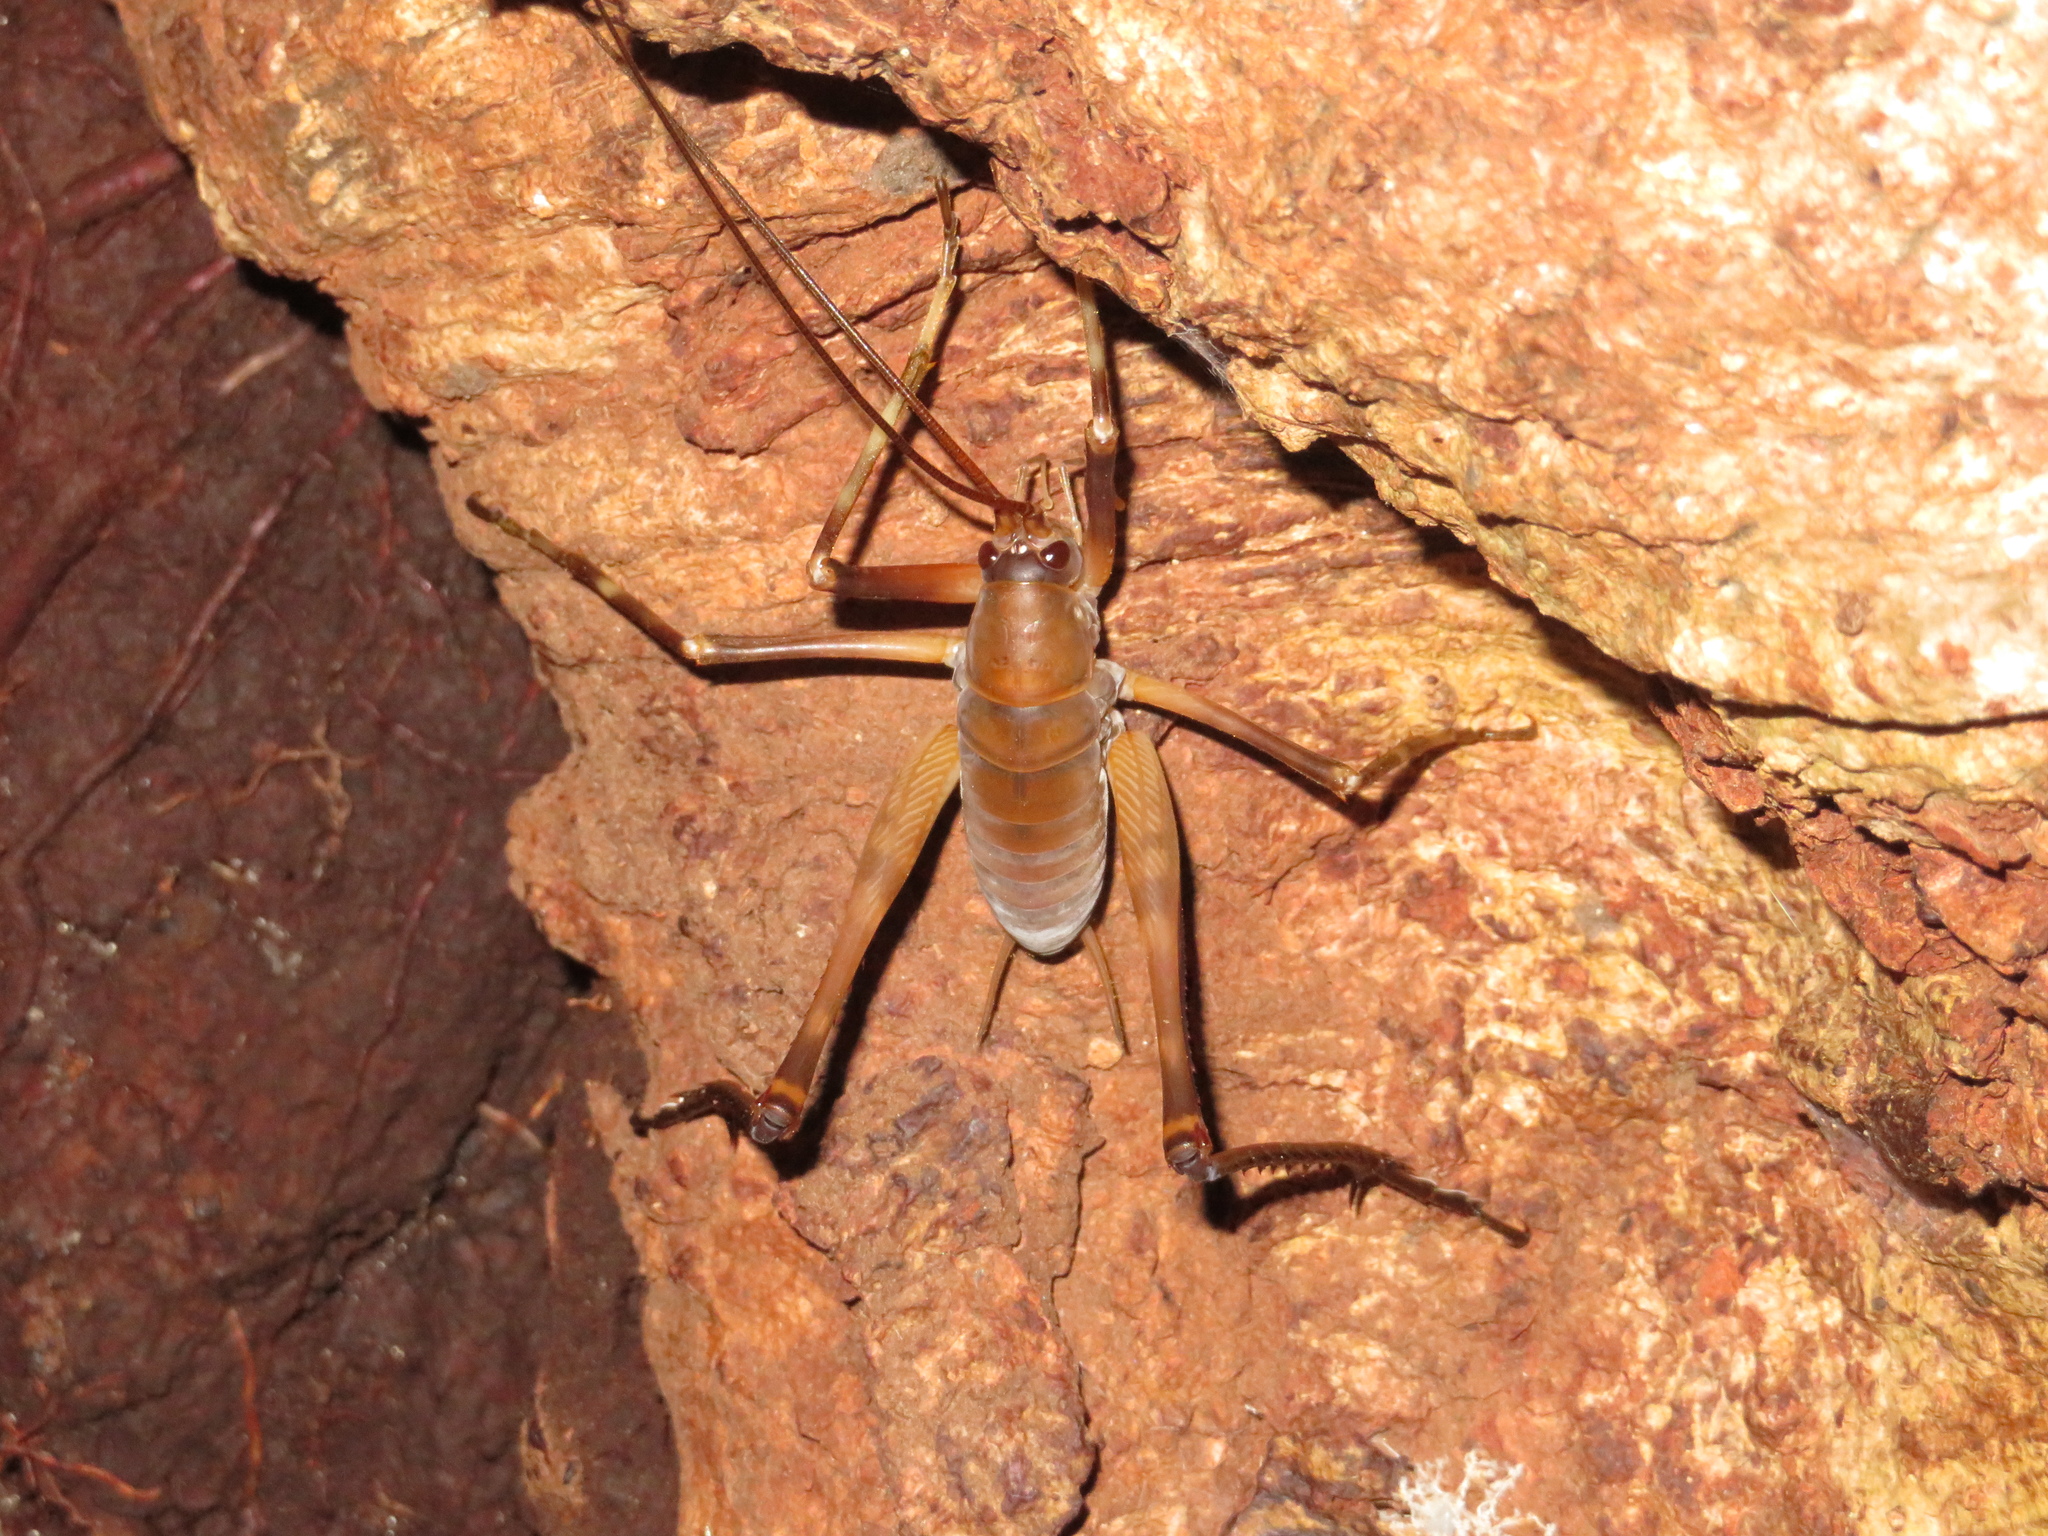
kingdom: Animalia
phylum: Arthropoda
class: Insecta
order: Orthoptera
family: Rhaphidophoridae
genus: Pachyrhamma
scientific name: Pachyrhamma longipes
